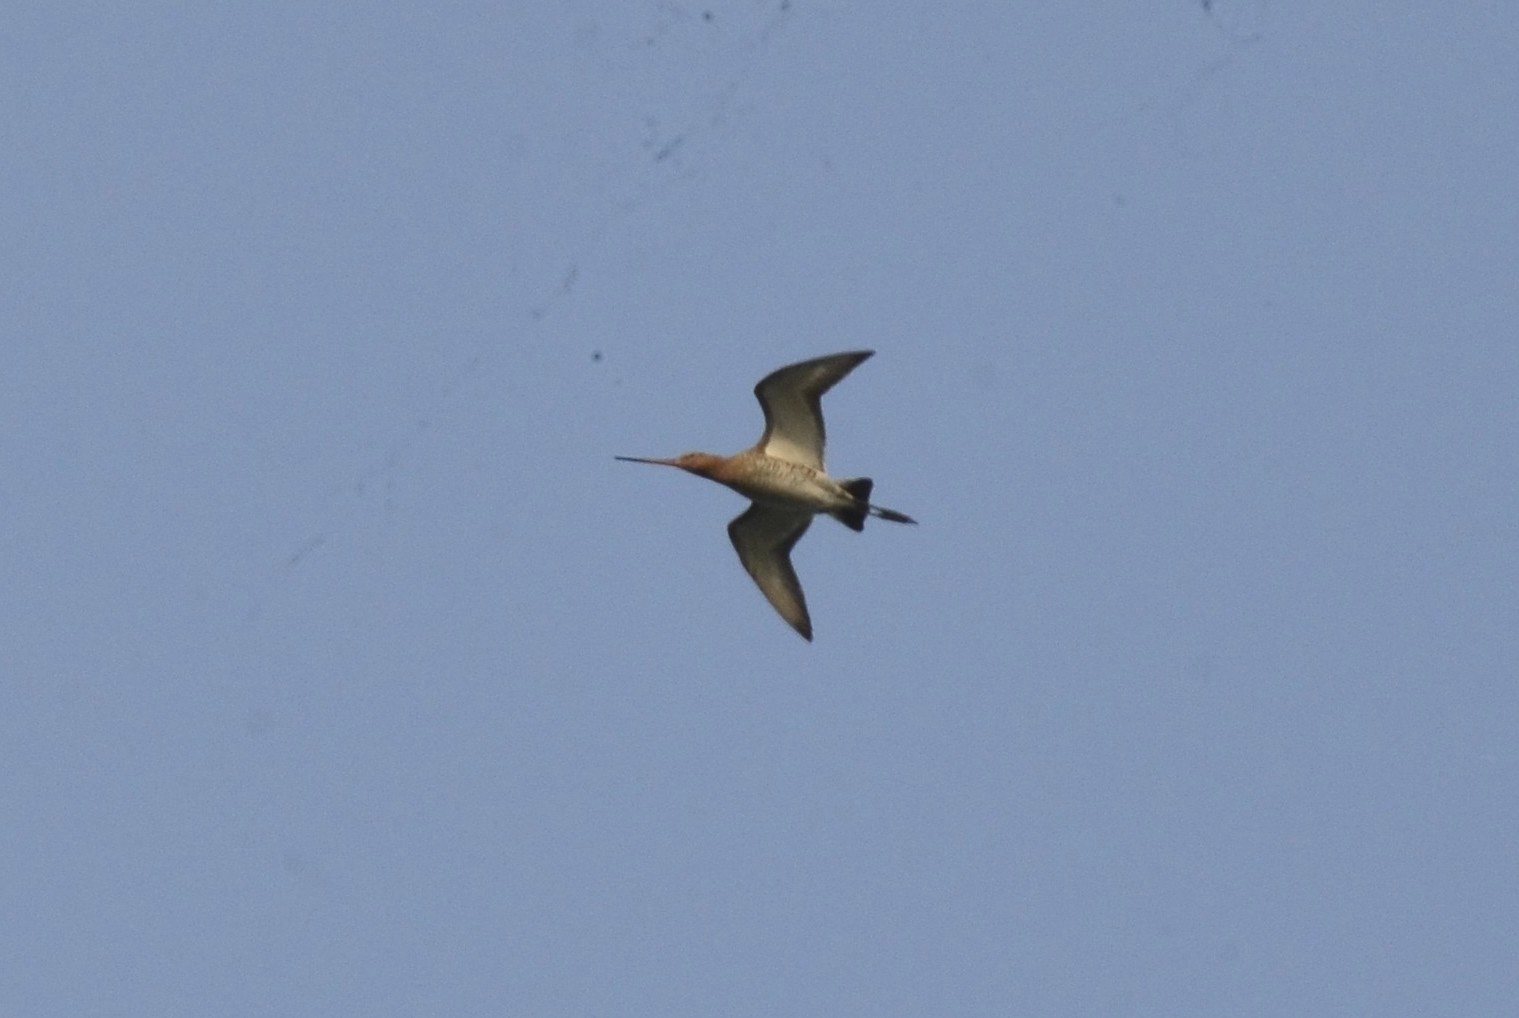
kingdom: Animalia
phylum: Chordata
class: Aves
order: Charadriiformes
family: Scolopacidae
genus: Limosa
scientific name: Limosa limosa
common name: Black-tailed godwit
